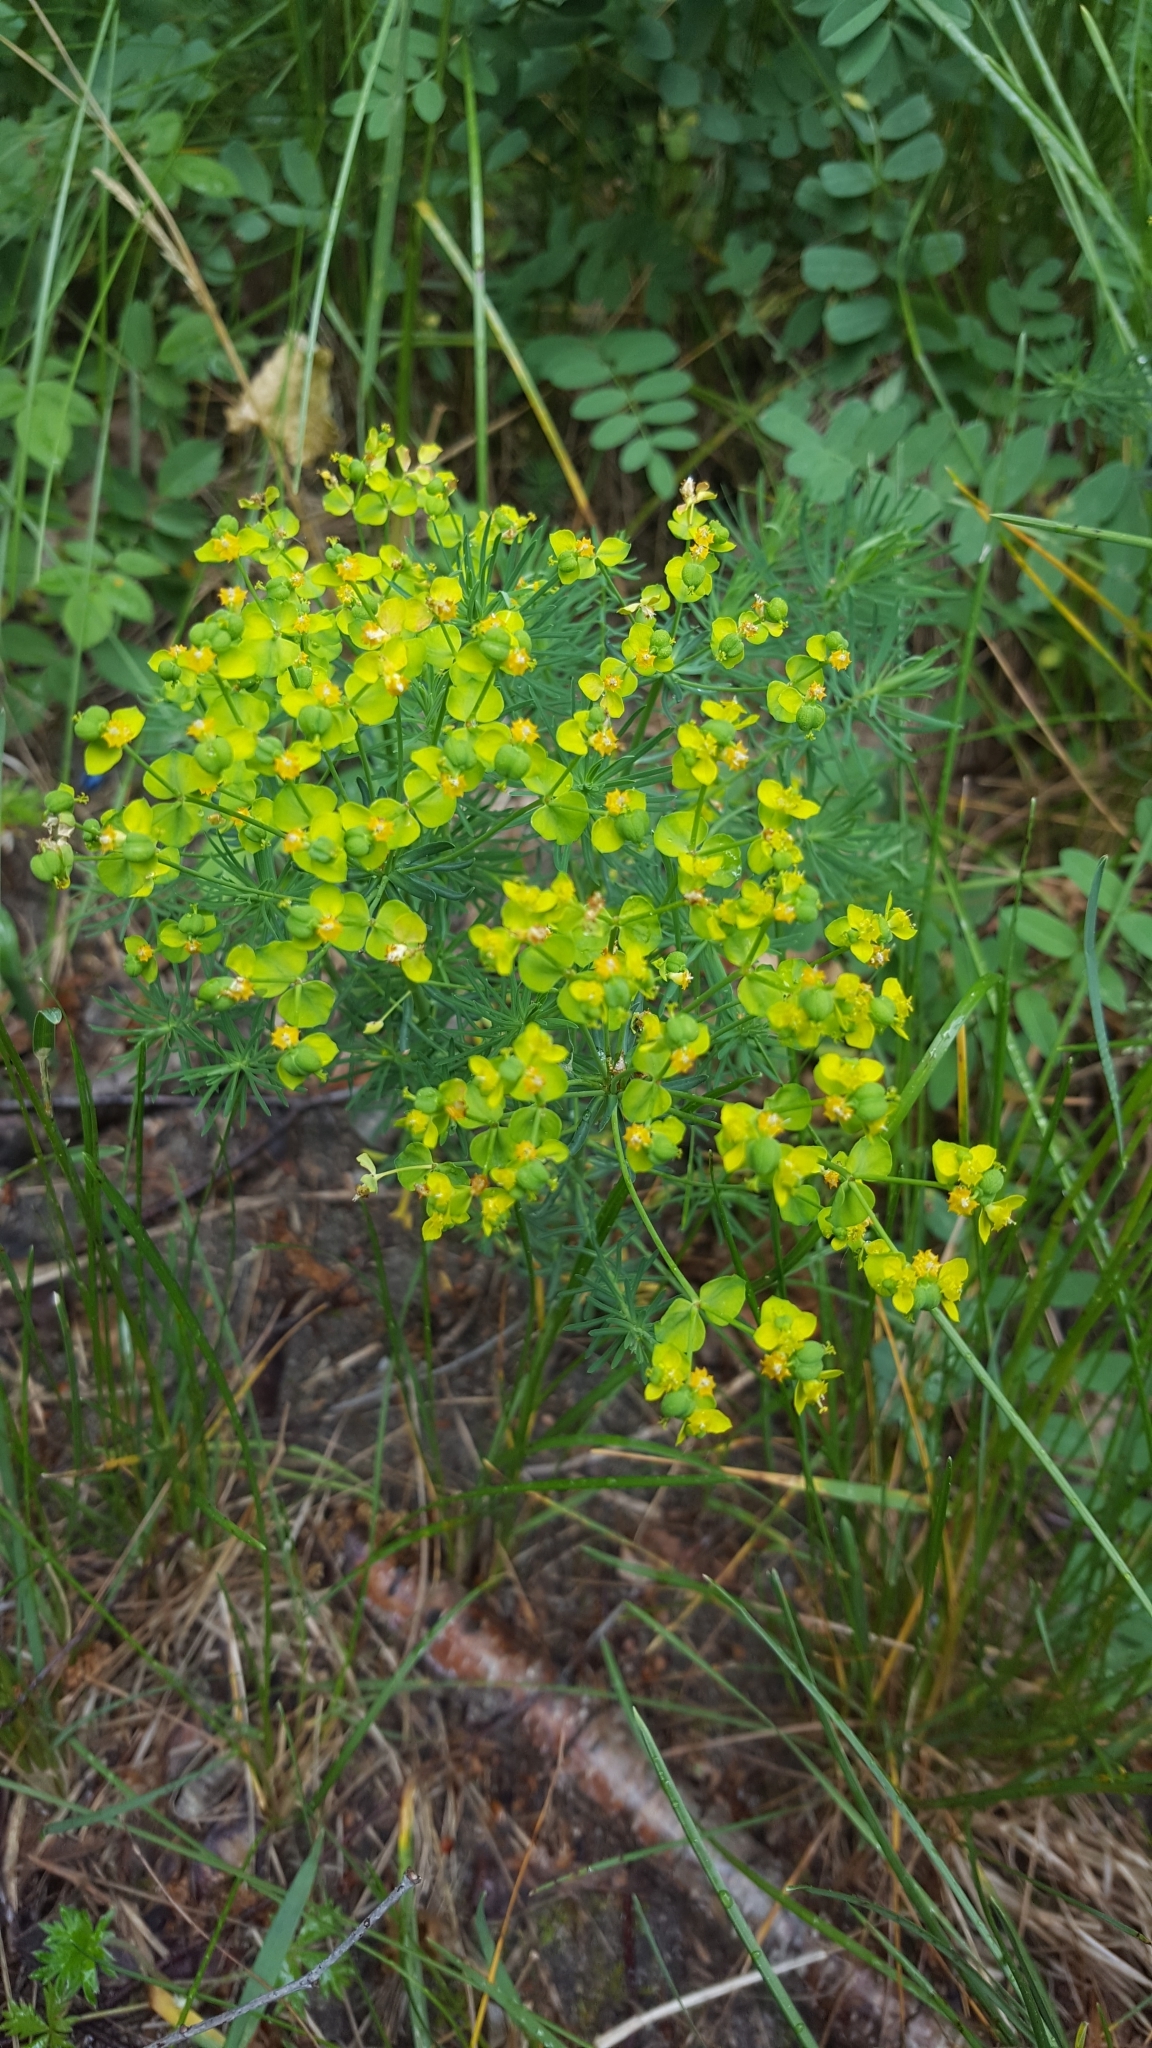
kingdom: Plantae
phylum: Tracheophyta
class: Magnoliopsida
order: Malpighiales
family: Euphorbiaceae
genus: Euphorbia
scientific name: Euphorbia cyparissias
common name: Cypress spurge
